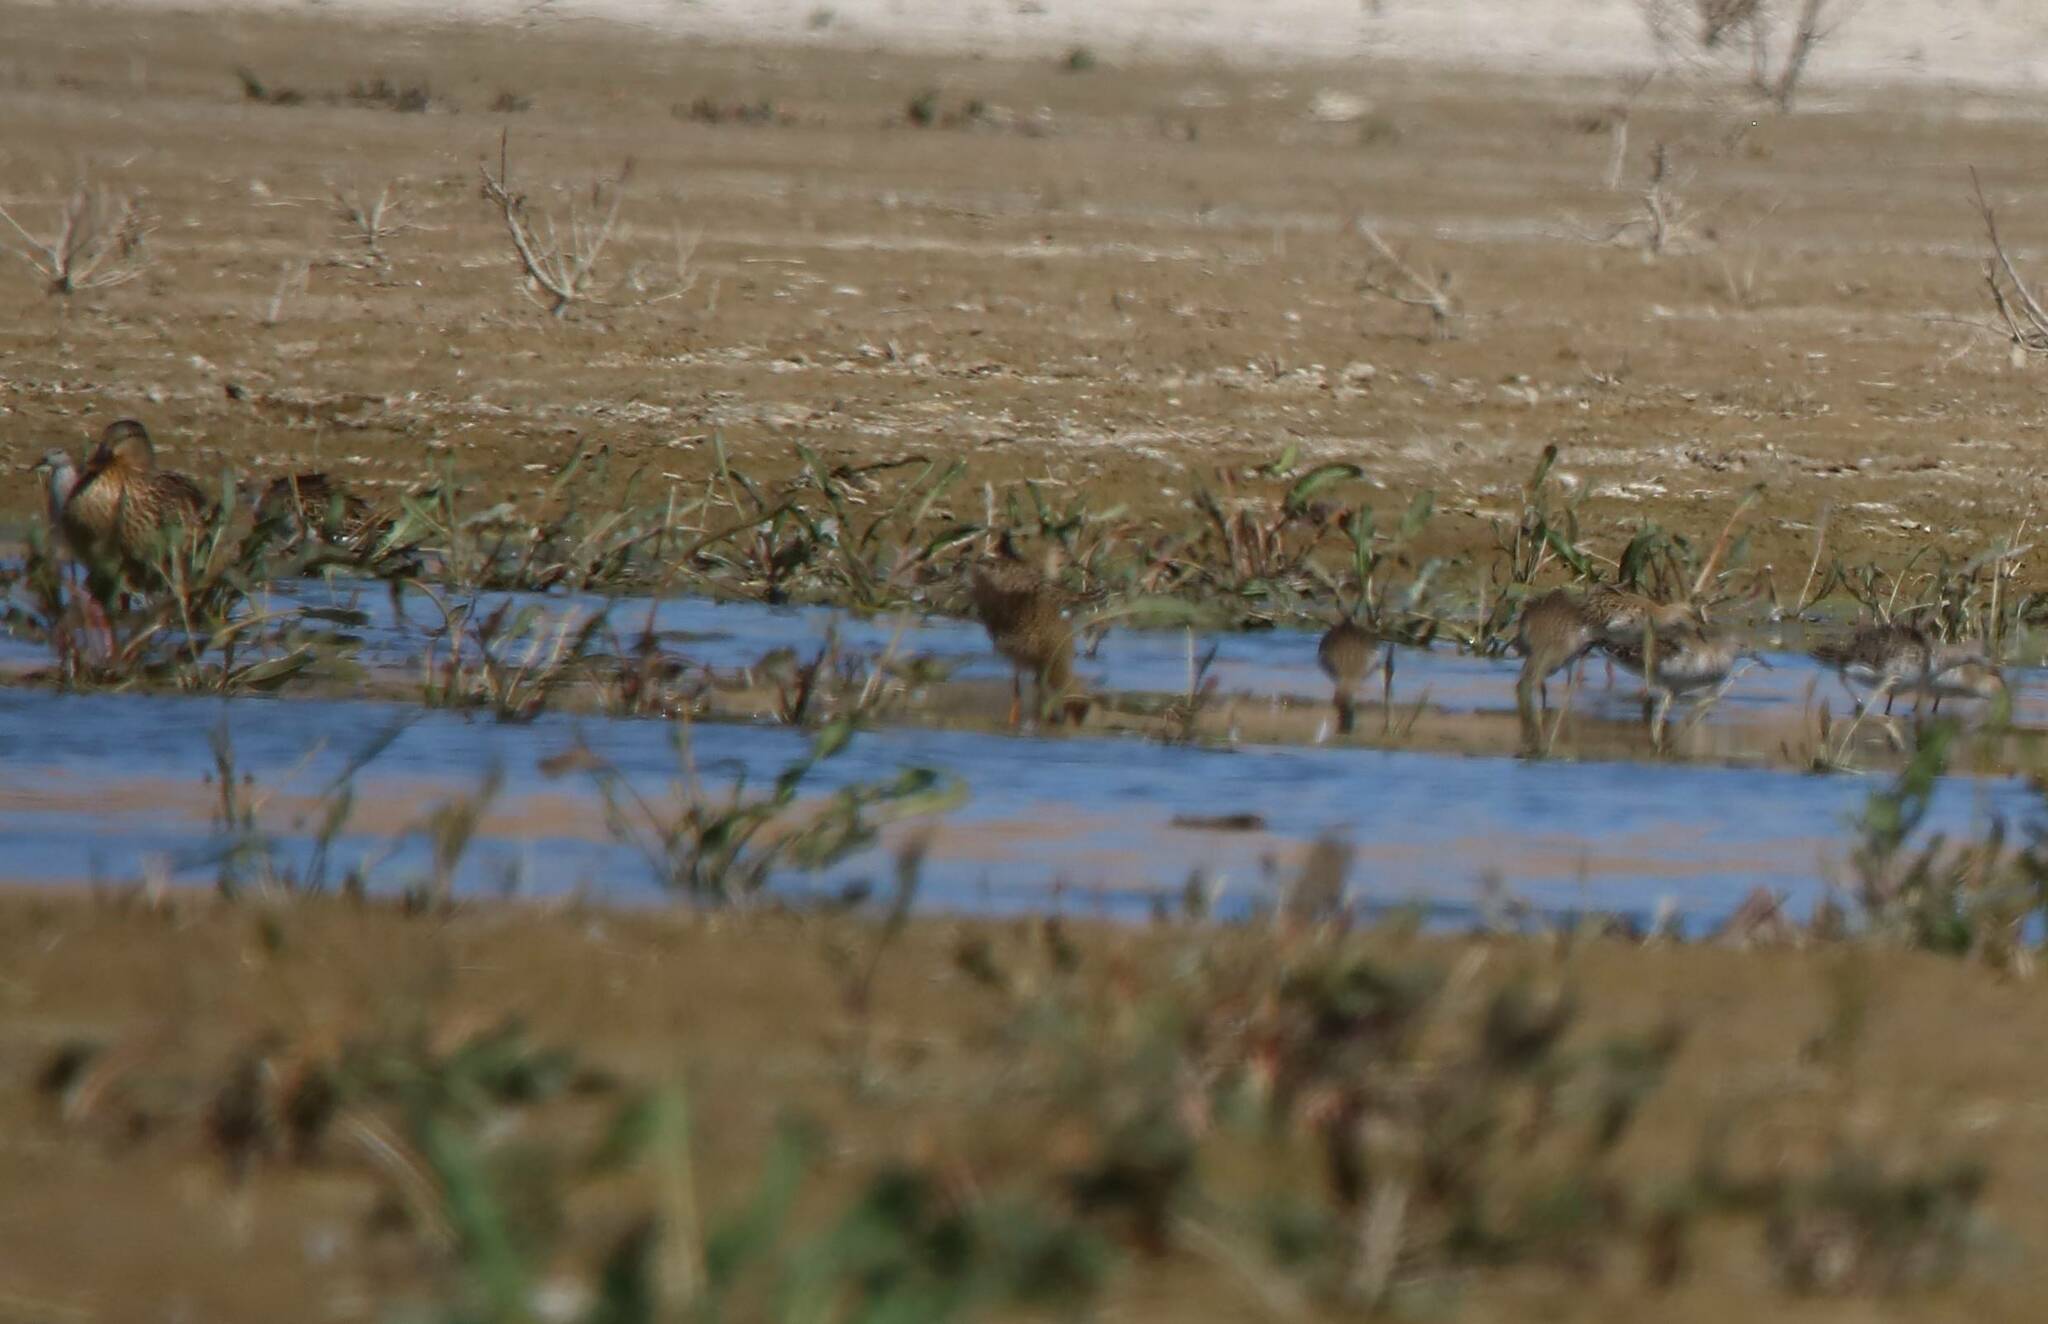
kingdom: Animalia
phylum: Chordata
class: Aves
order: Charadriiformes
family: Scolopacidae
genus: Calidris
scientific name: Calidris pugnax
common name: Ruff
